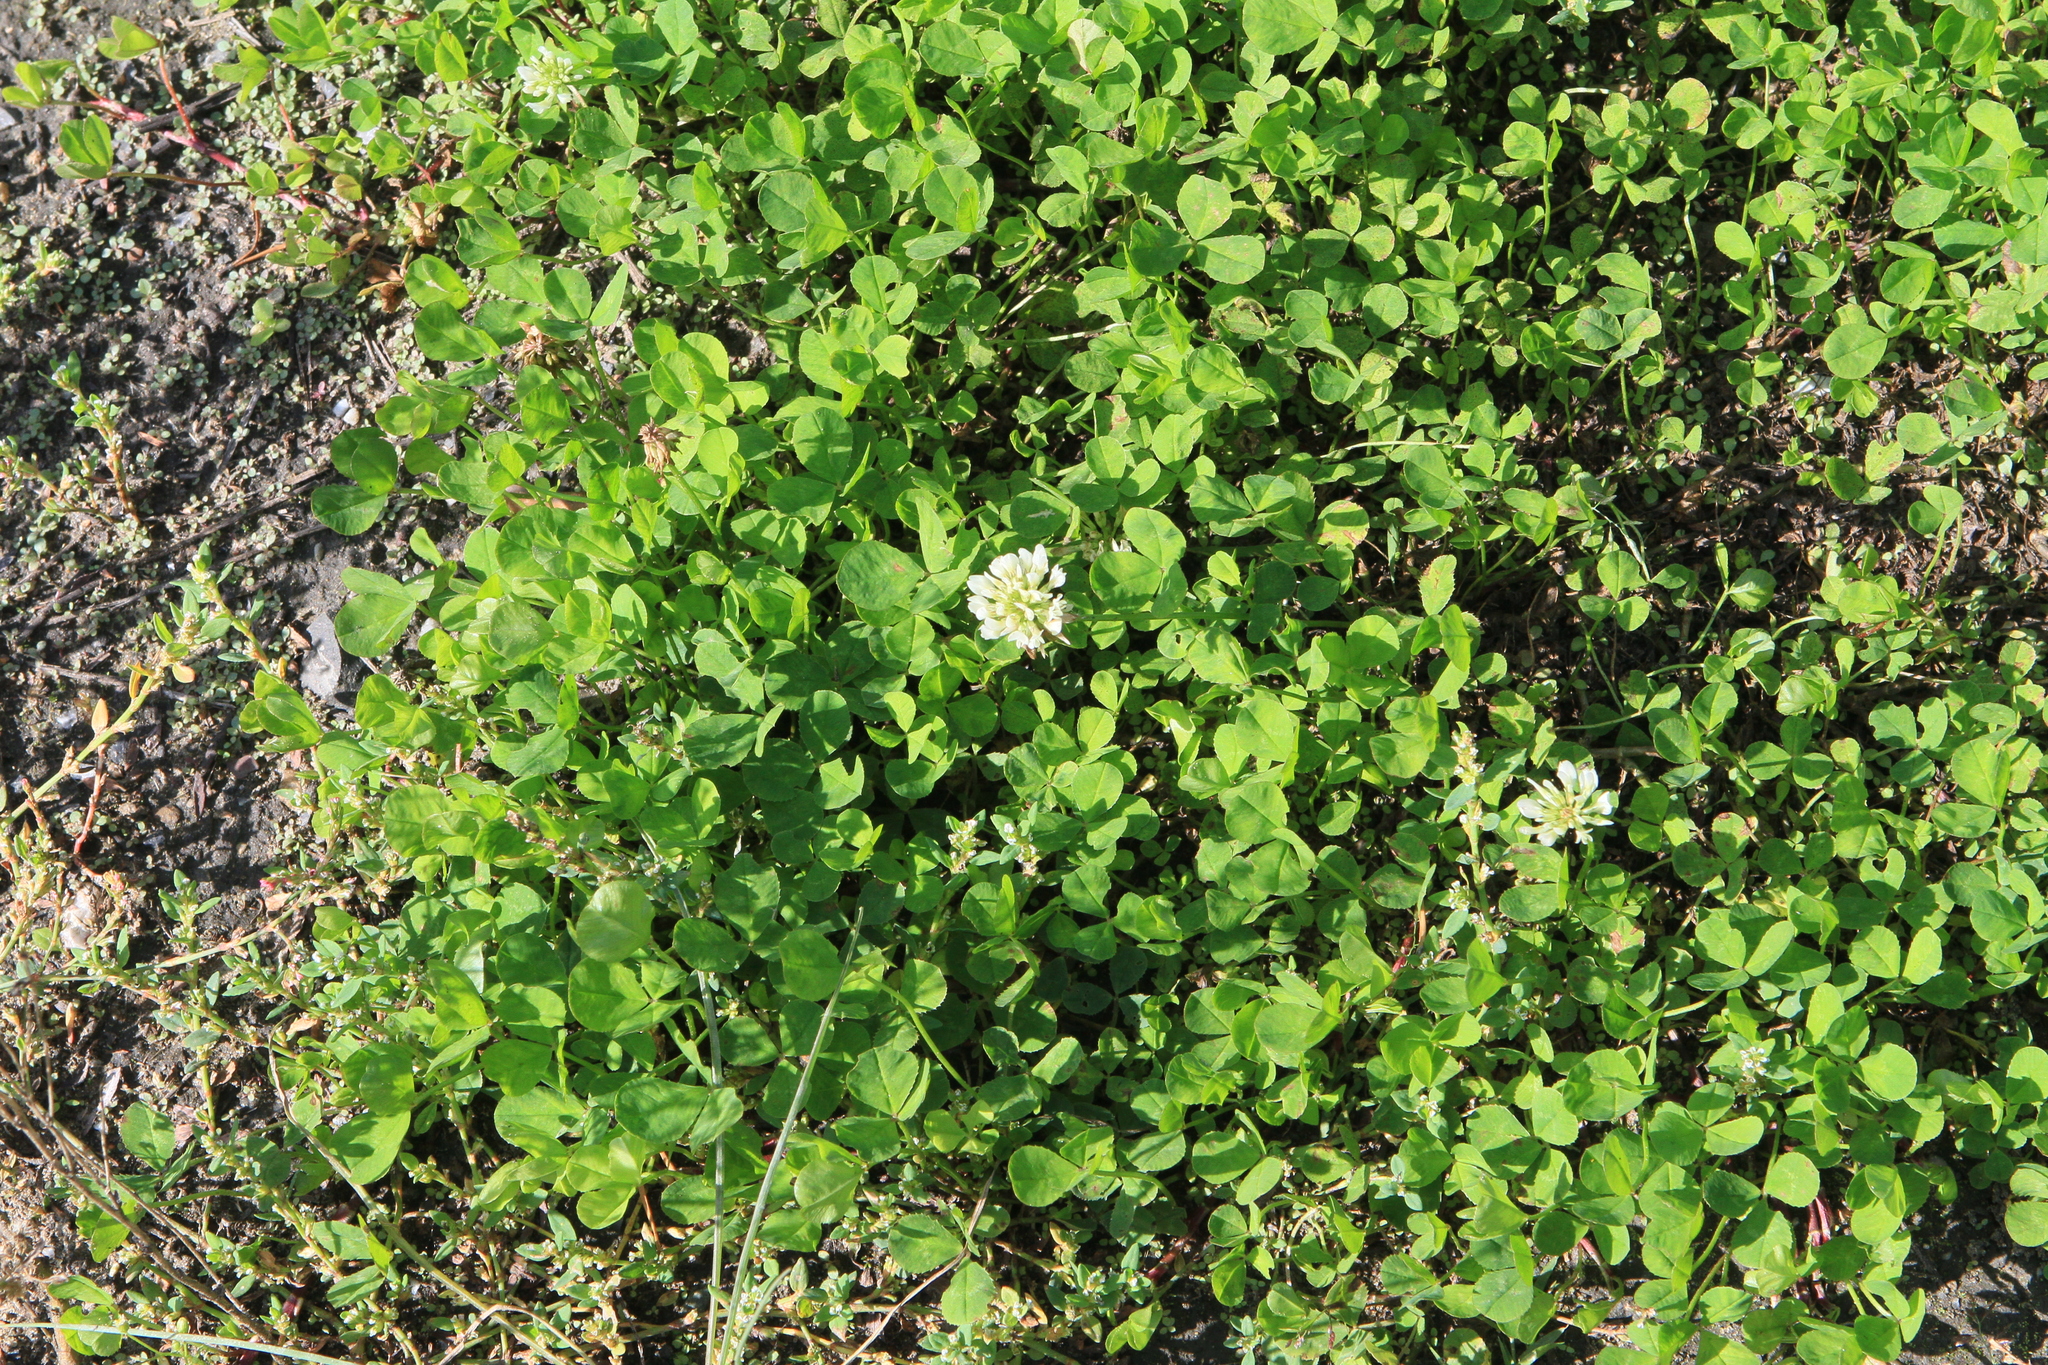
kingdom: Plantae
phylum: Tracheophyta
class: Magnoliopsida
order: Fabales
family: Fabaceae
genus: Trifolium
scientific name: Trifolium repens
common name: White clover
